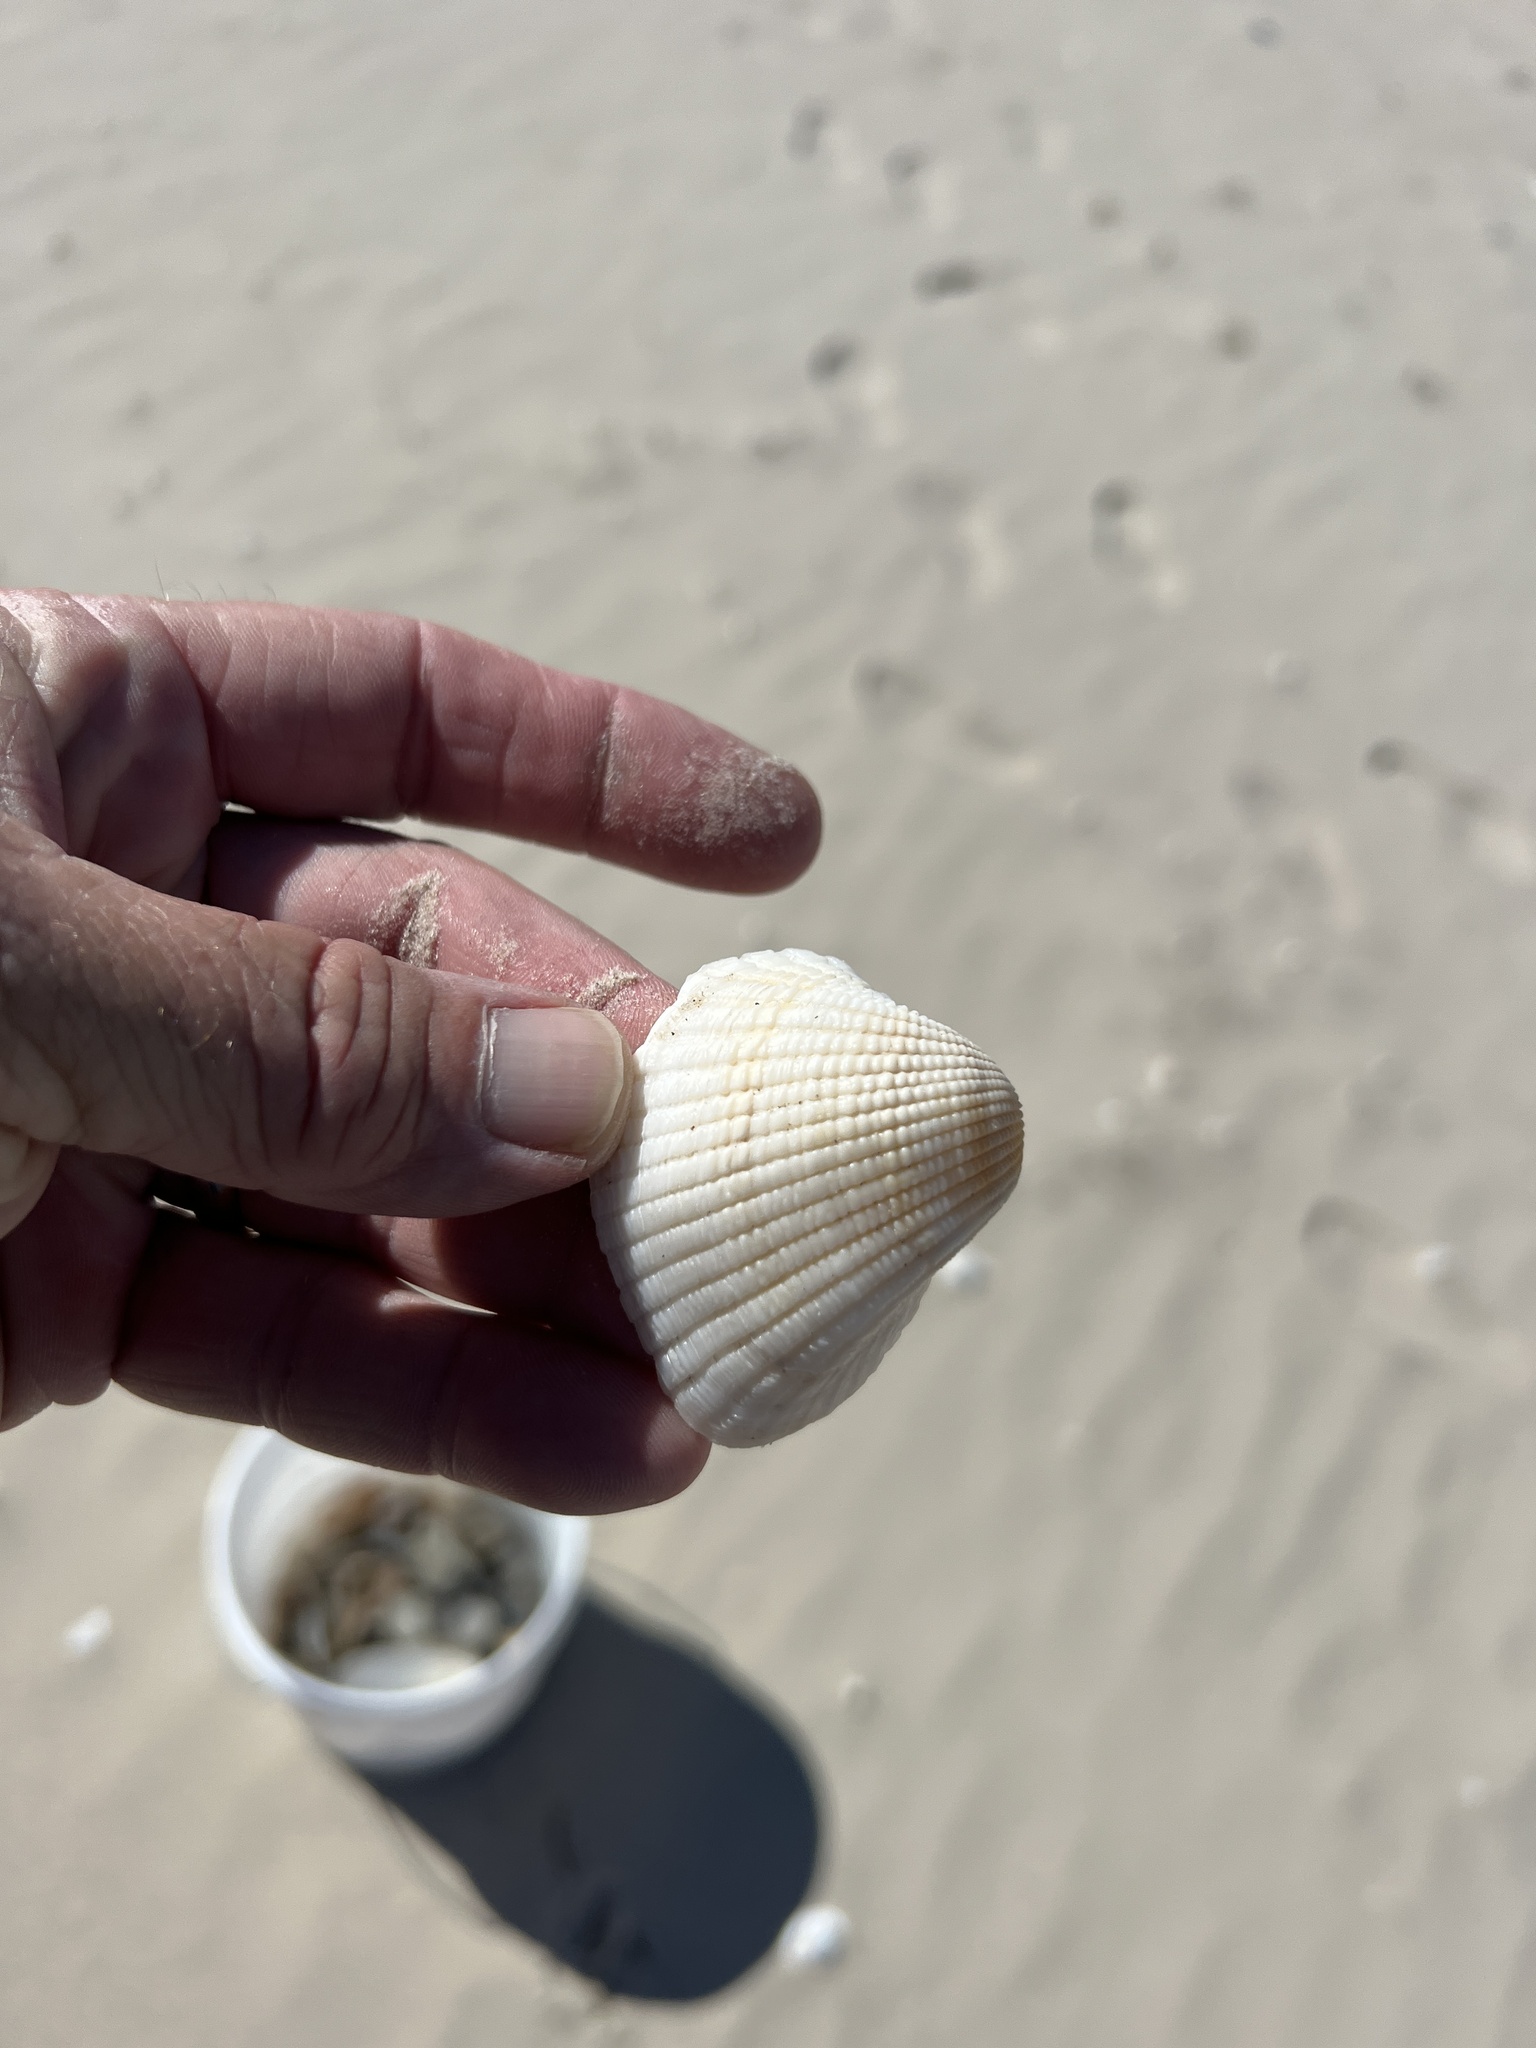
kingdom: Animalia
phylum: Mollusca
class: Bivalvia
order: Arcida
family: Arcidae
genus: Anadara
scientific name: Anadara brasiliana
